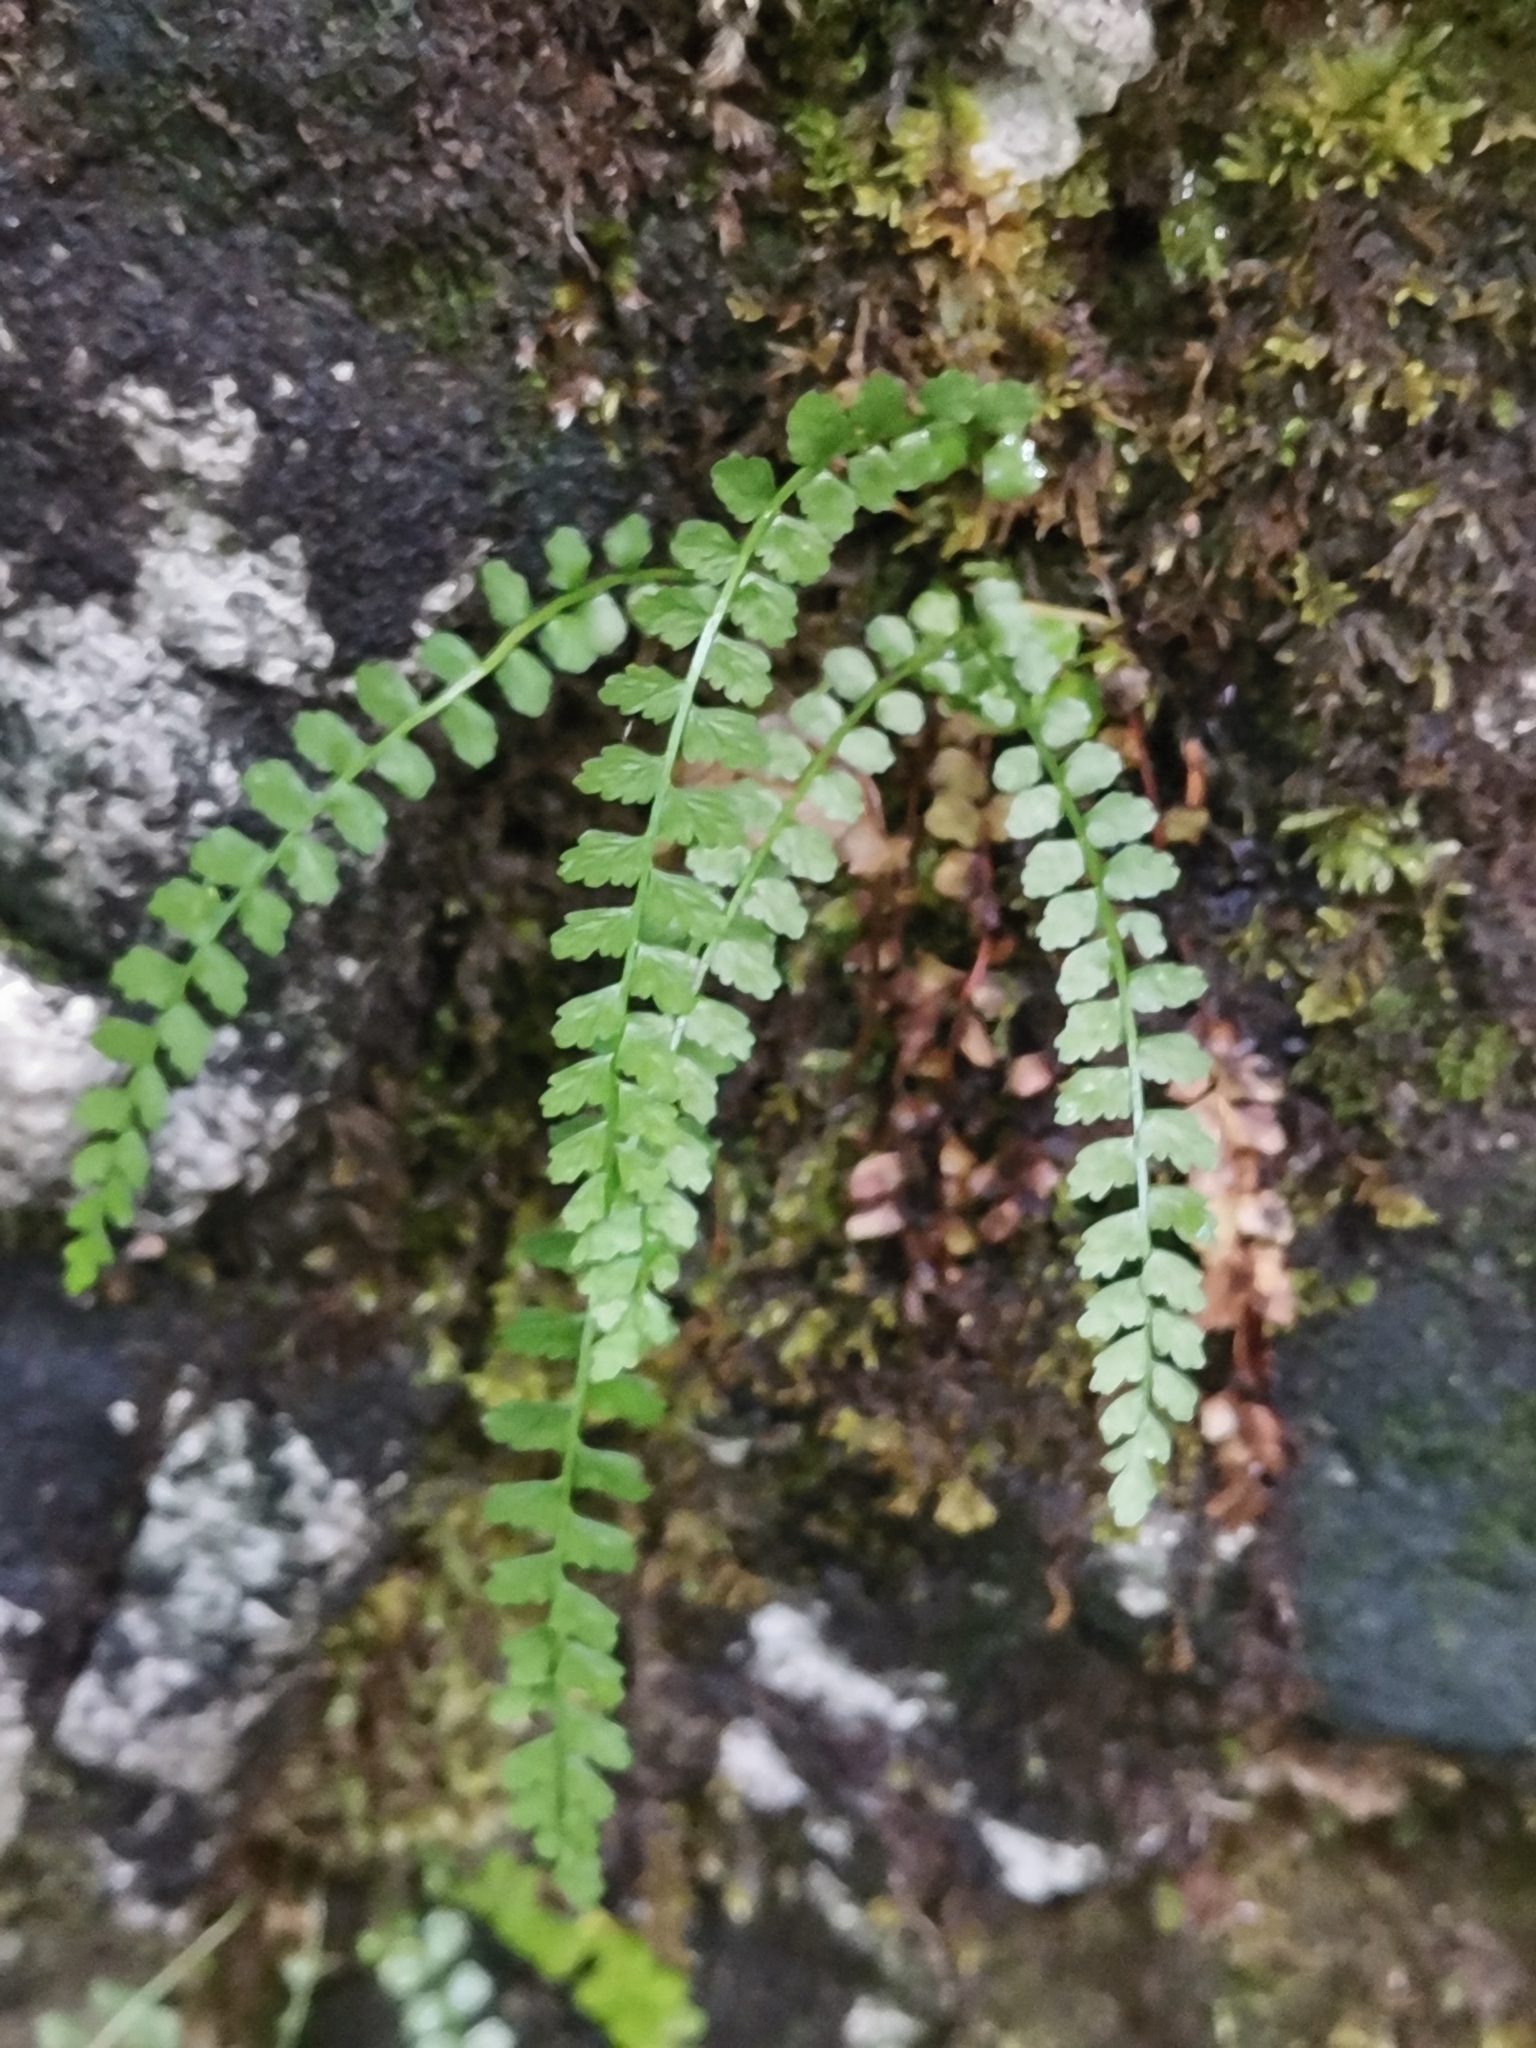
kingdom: Plantae
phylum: Tracheophyta
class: Polypodiopsida
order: Polypodiales
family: Aspleniaceae
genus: Asplenium
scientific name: Asplenium viride
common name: Green spleenwort
